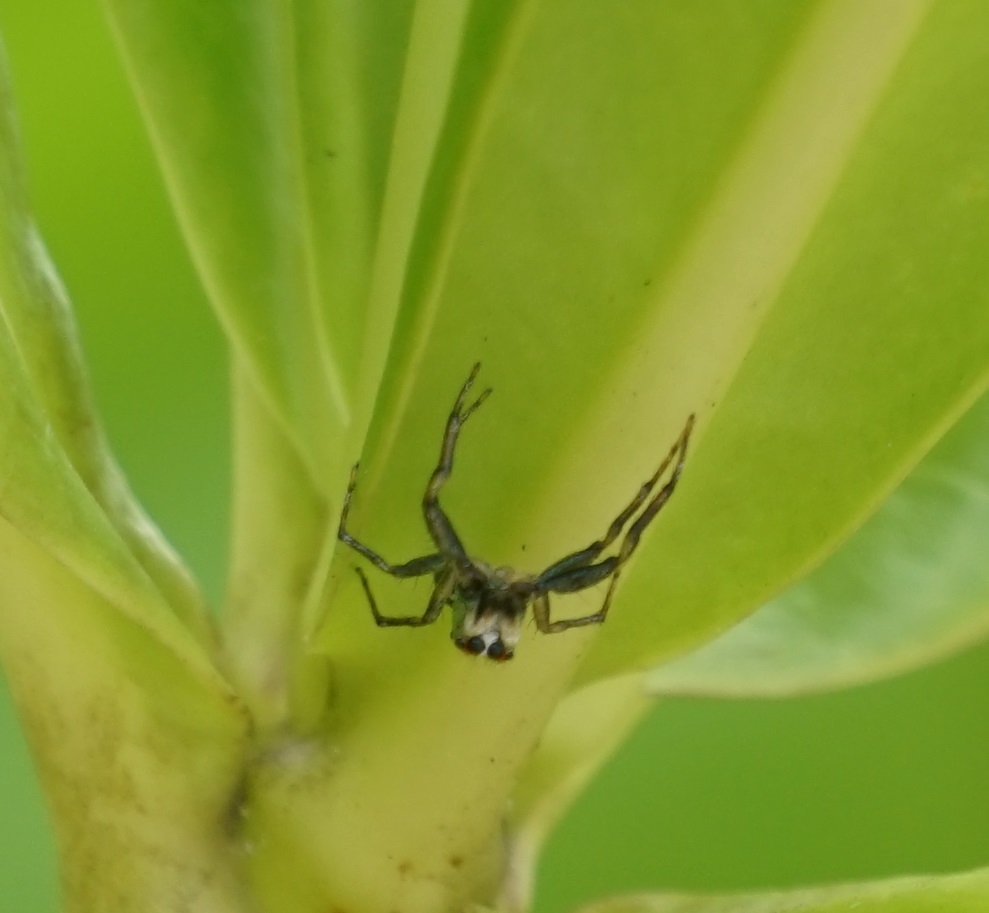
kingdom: Animalia
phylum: Arthropoda
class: Arachnida
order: Araneae
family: Salticidae
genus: Cosmophasis
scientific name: Cosmophasis baehrae
